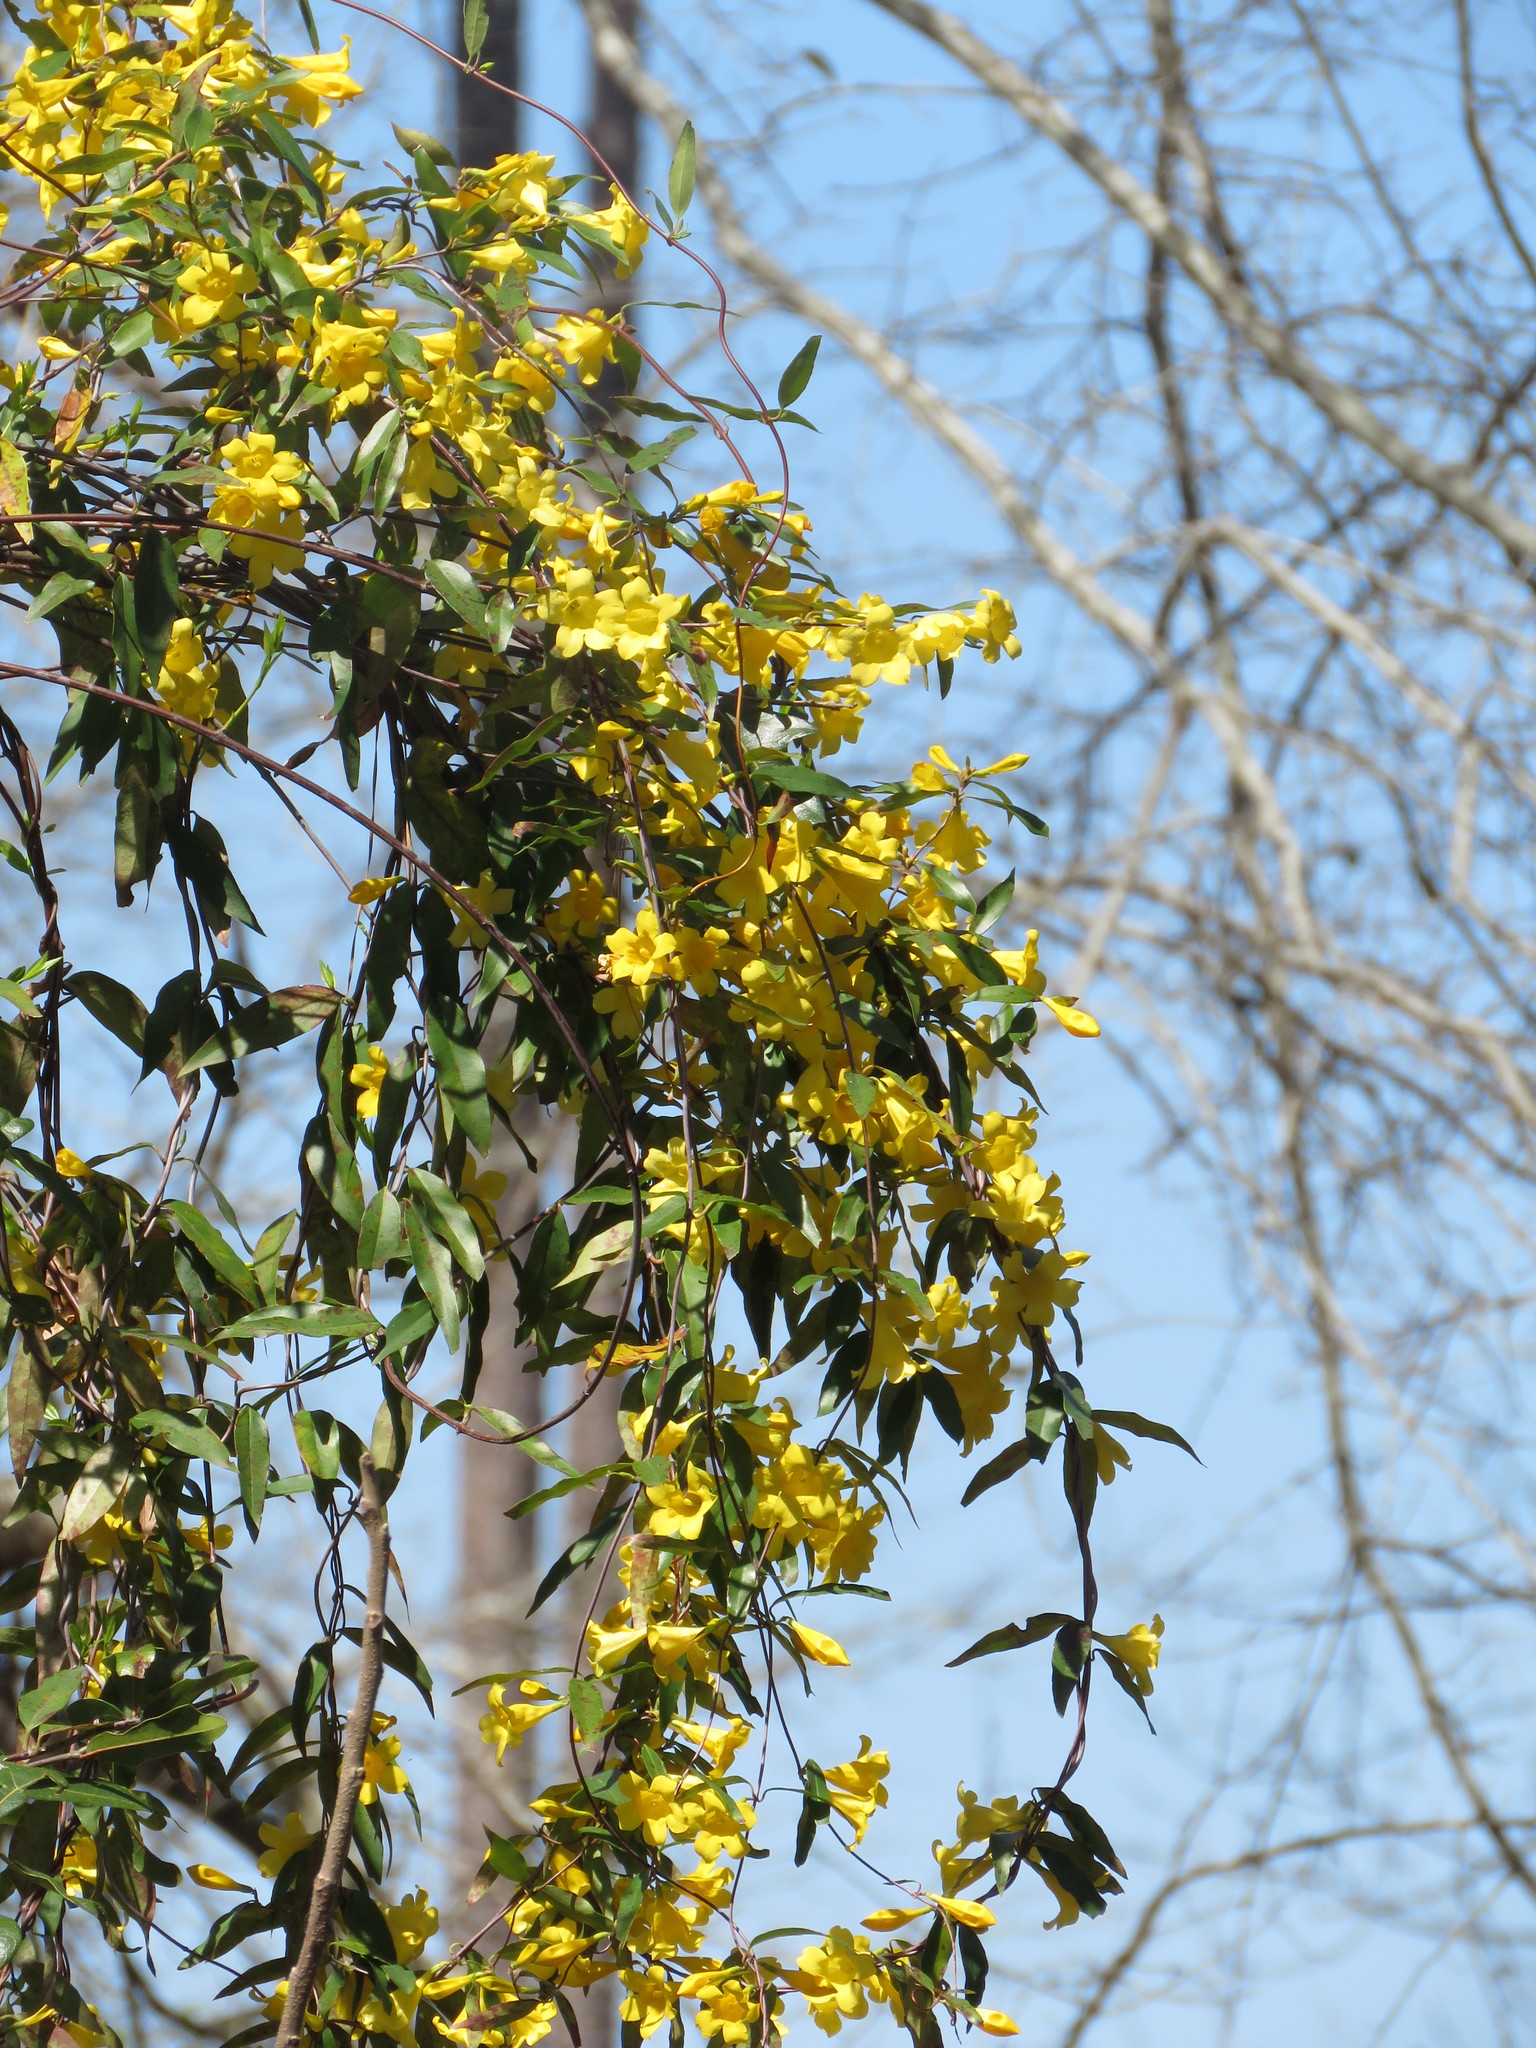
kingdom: Plantae
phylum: Tracheophyta
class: Magnoliopsida
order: Gentianales
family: Gelsemiaceae
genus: Gelsemium
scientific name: Gelsemium sempervirens
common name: Carolina-jasmine
